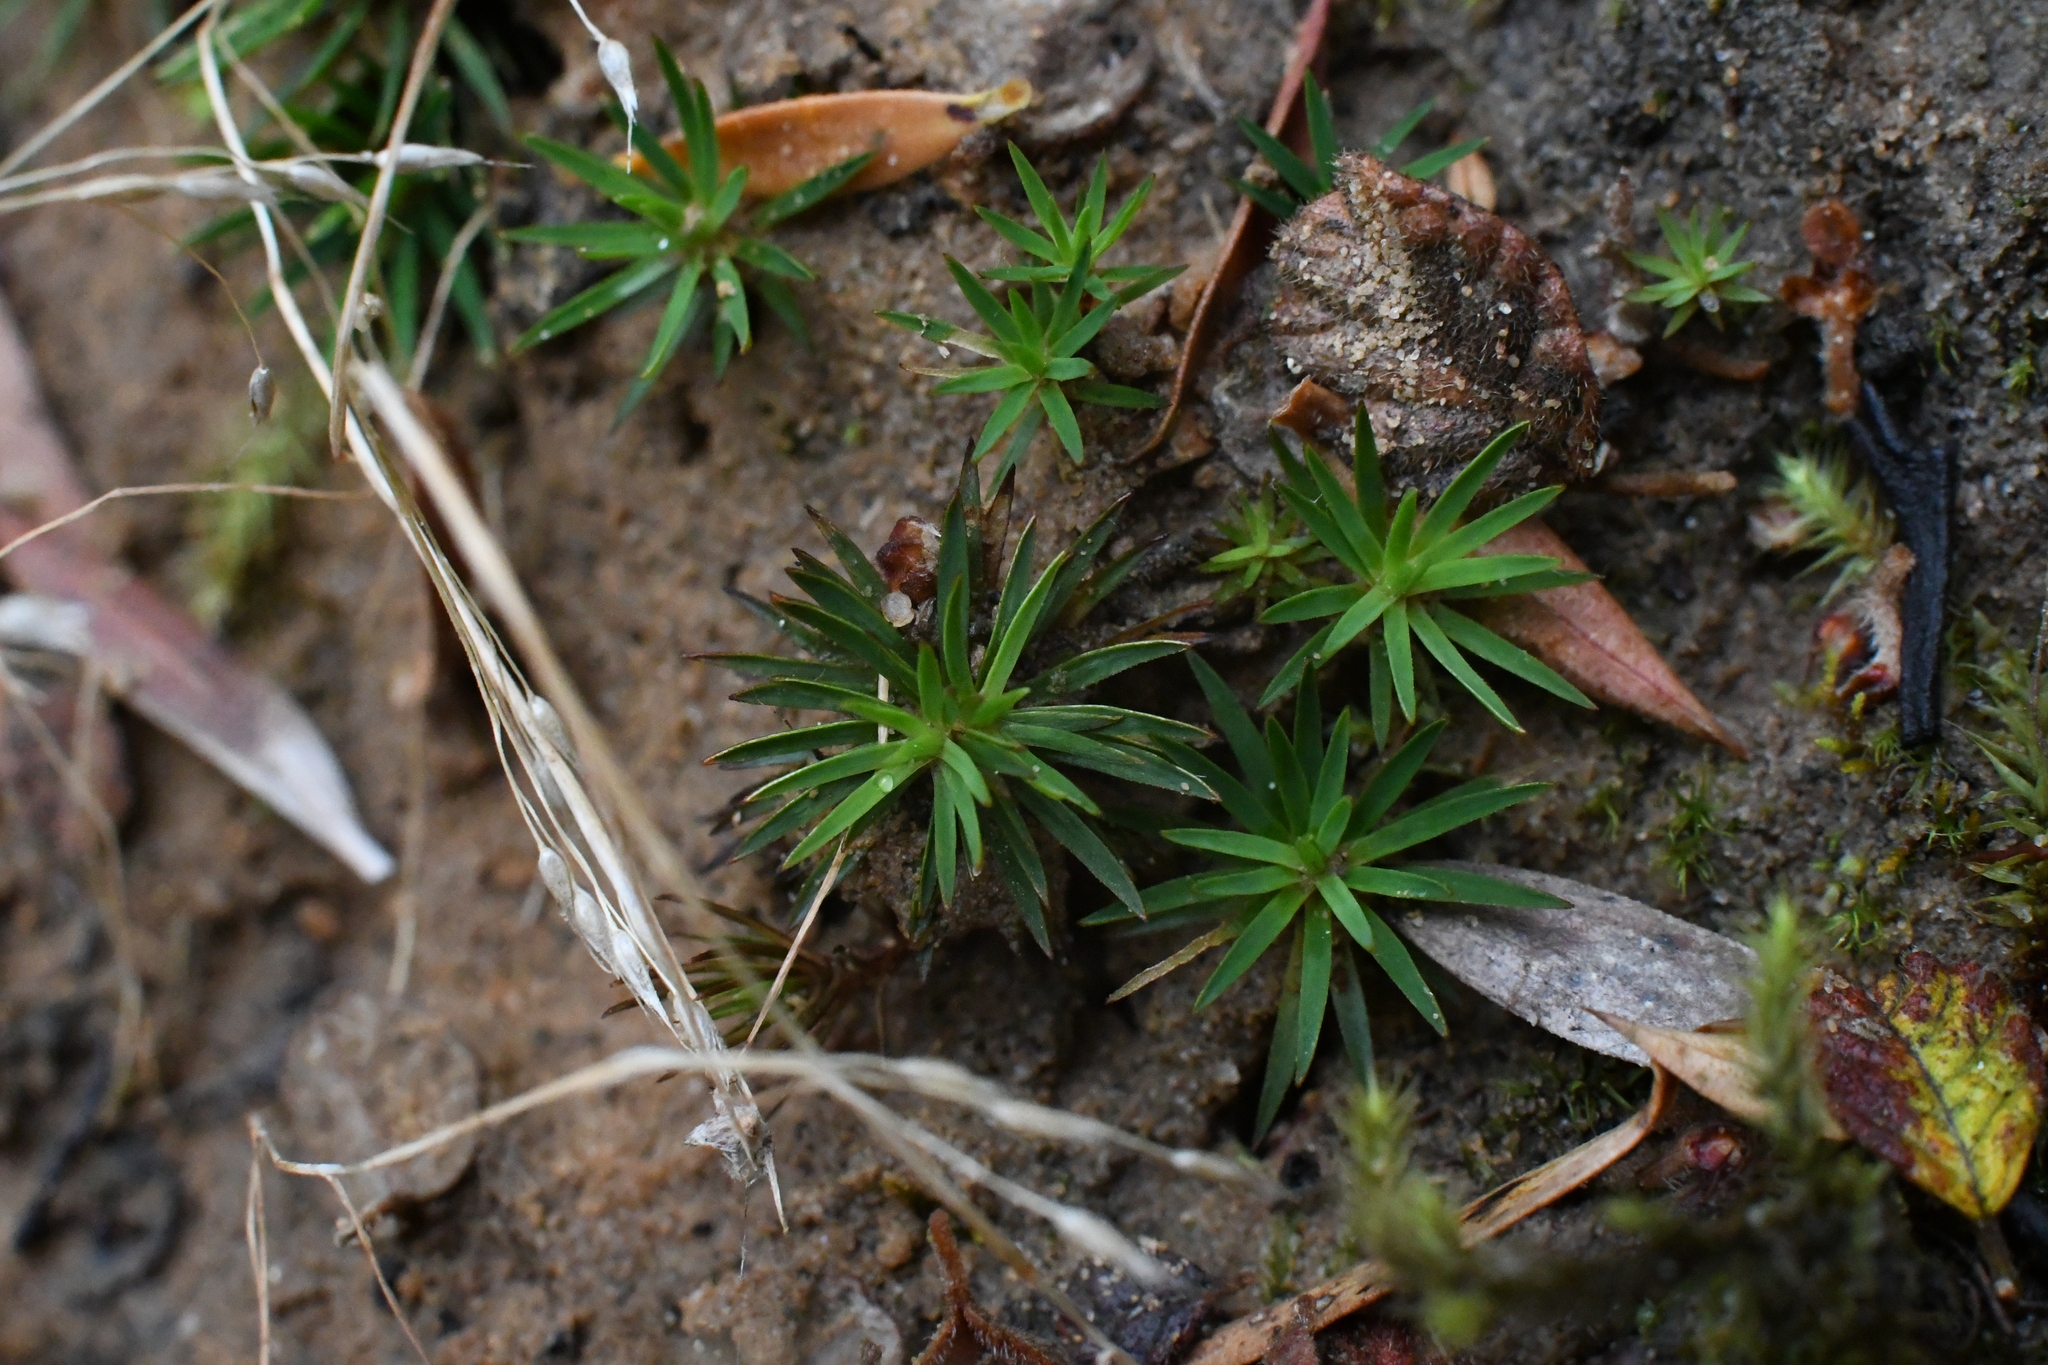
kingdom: Plantae
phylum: Bryophyta
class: Polytrichopsida
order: Polytrichales
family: Polytrichaceae
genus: Dawsonia
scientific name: Dawsonia longiseta
